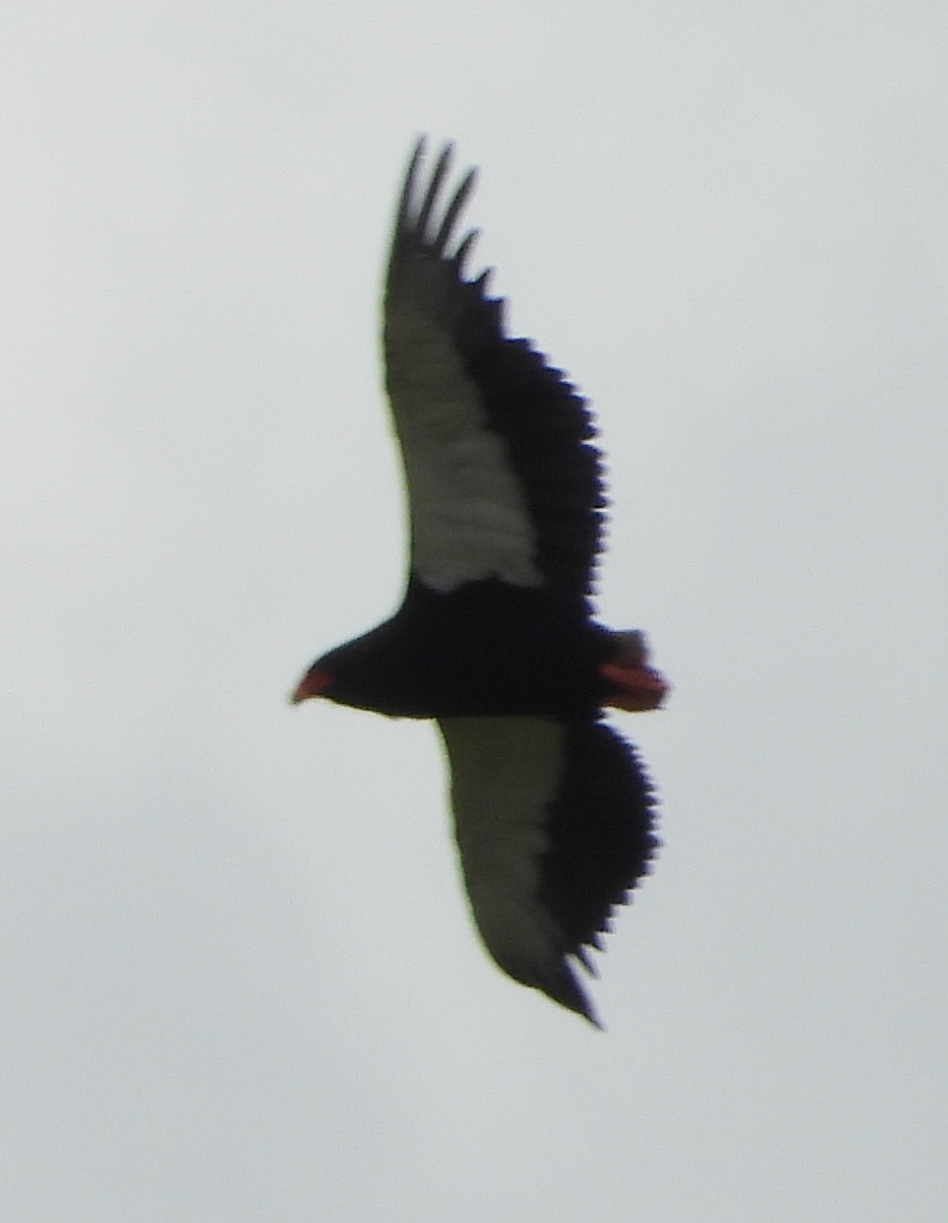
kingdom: Animalia
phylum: Chordata
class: Aves
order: Accipitriformes
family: Accipitridae
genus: Terathopius
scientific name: Terathopius ecaudatus
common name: Bateleur
